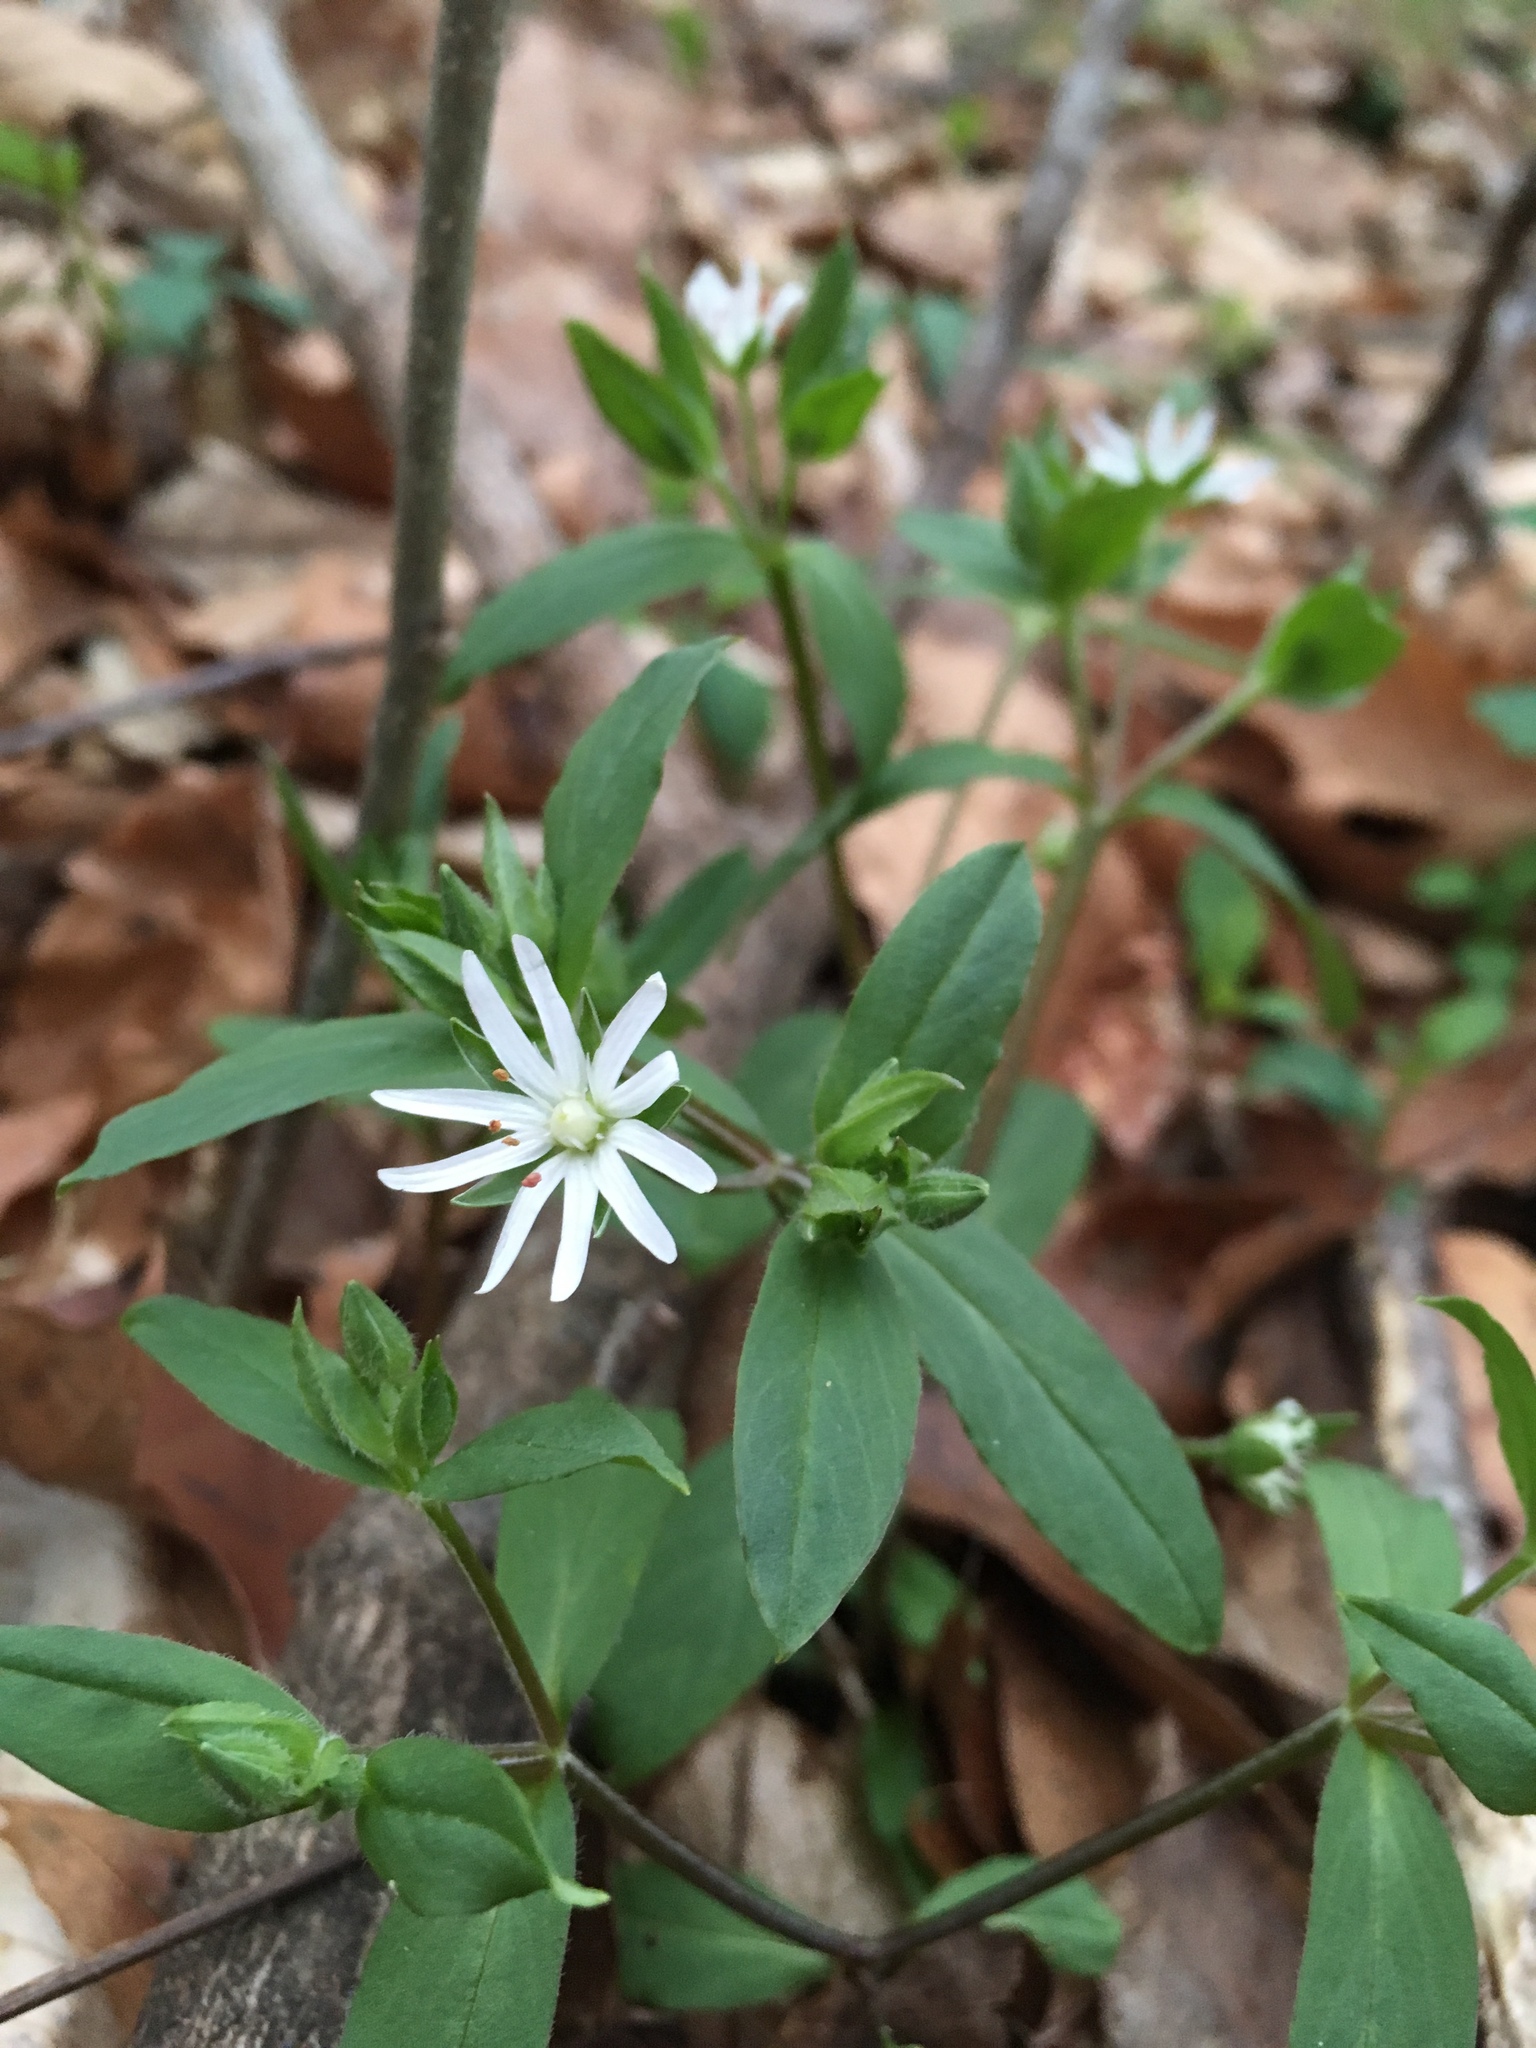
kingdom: Plantae
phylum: Tracheophyta
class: Magnoliopsida
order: Caryophyllales
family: Caryophyllaceae
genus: Stellaria
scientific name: Stellaria pubera
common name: Star chickweed
